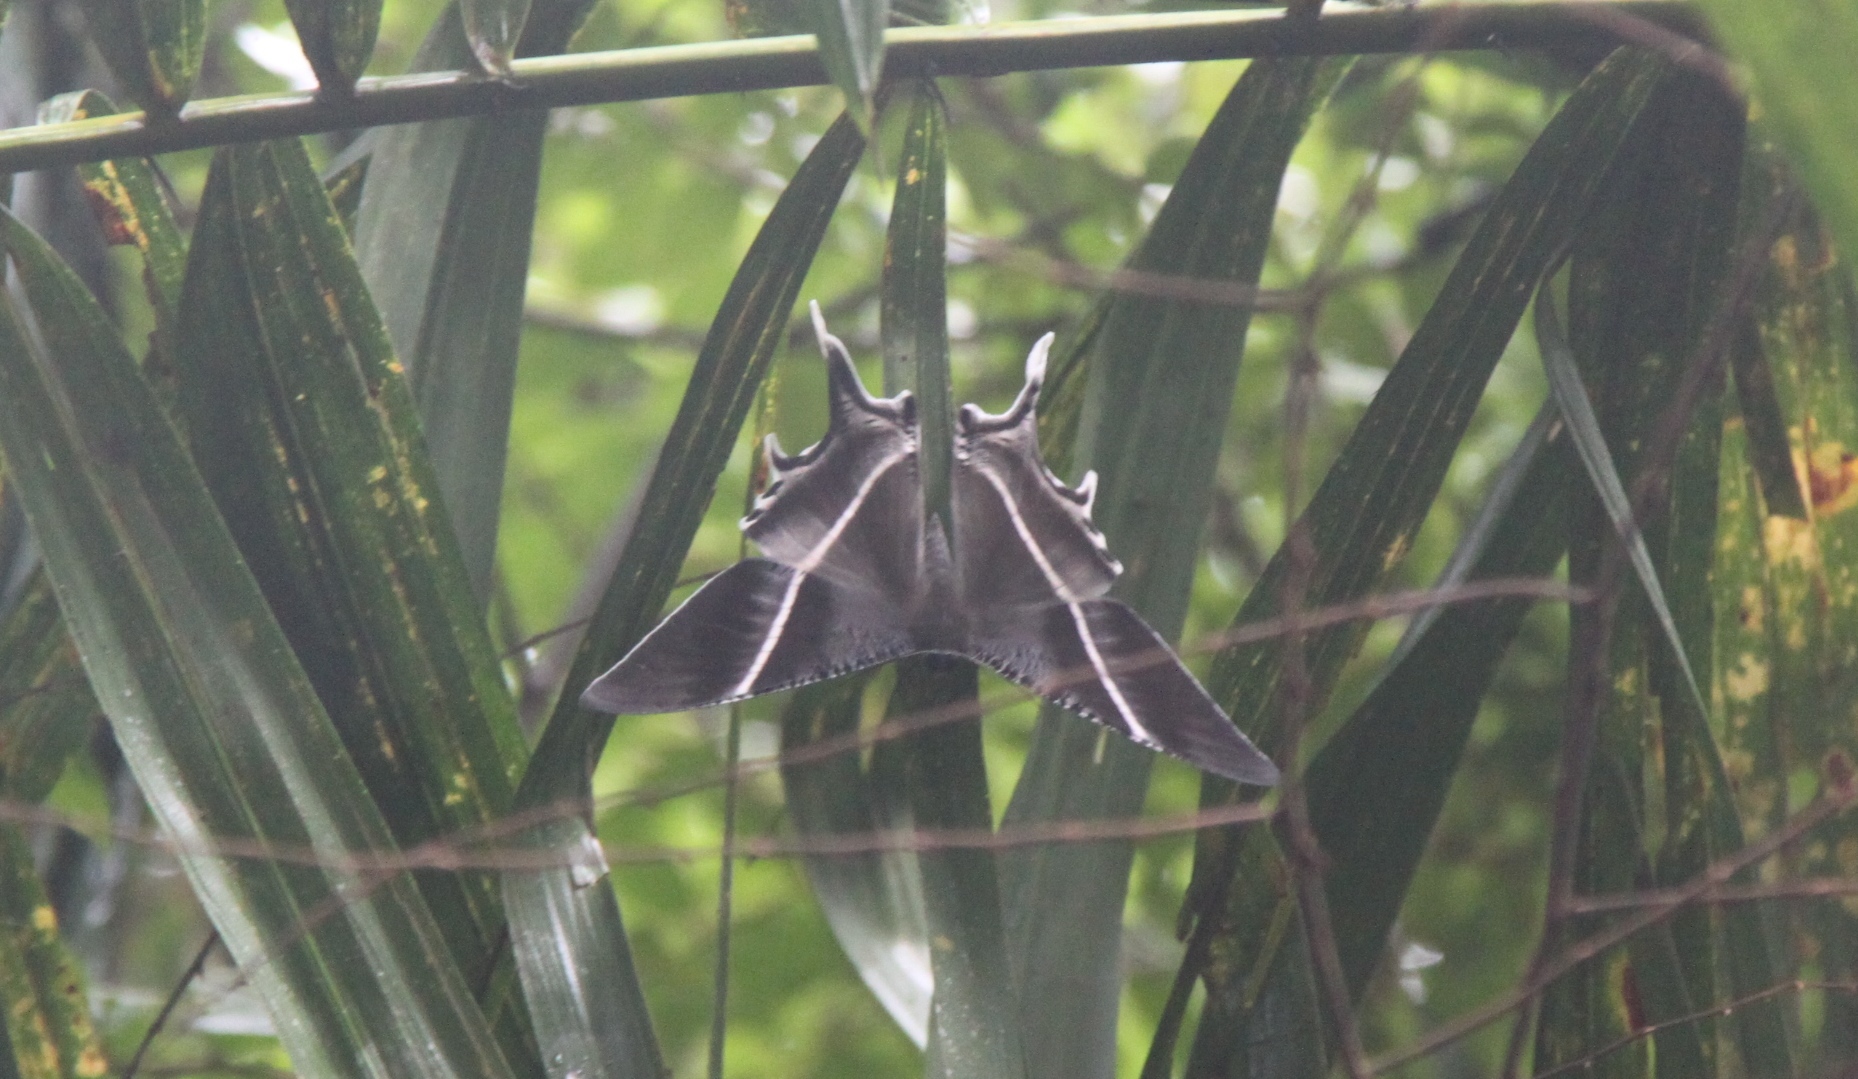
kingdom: Animalia
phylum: Arthropoda
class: Insecta
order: Lepidoptera
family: Uraniidae
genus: Lyssa
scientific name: Lyssa zampa
